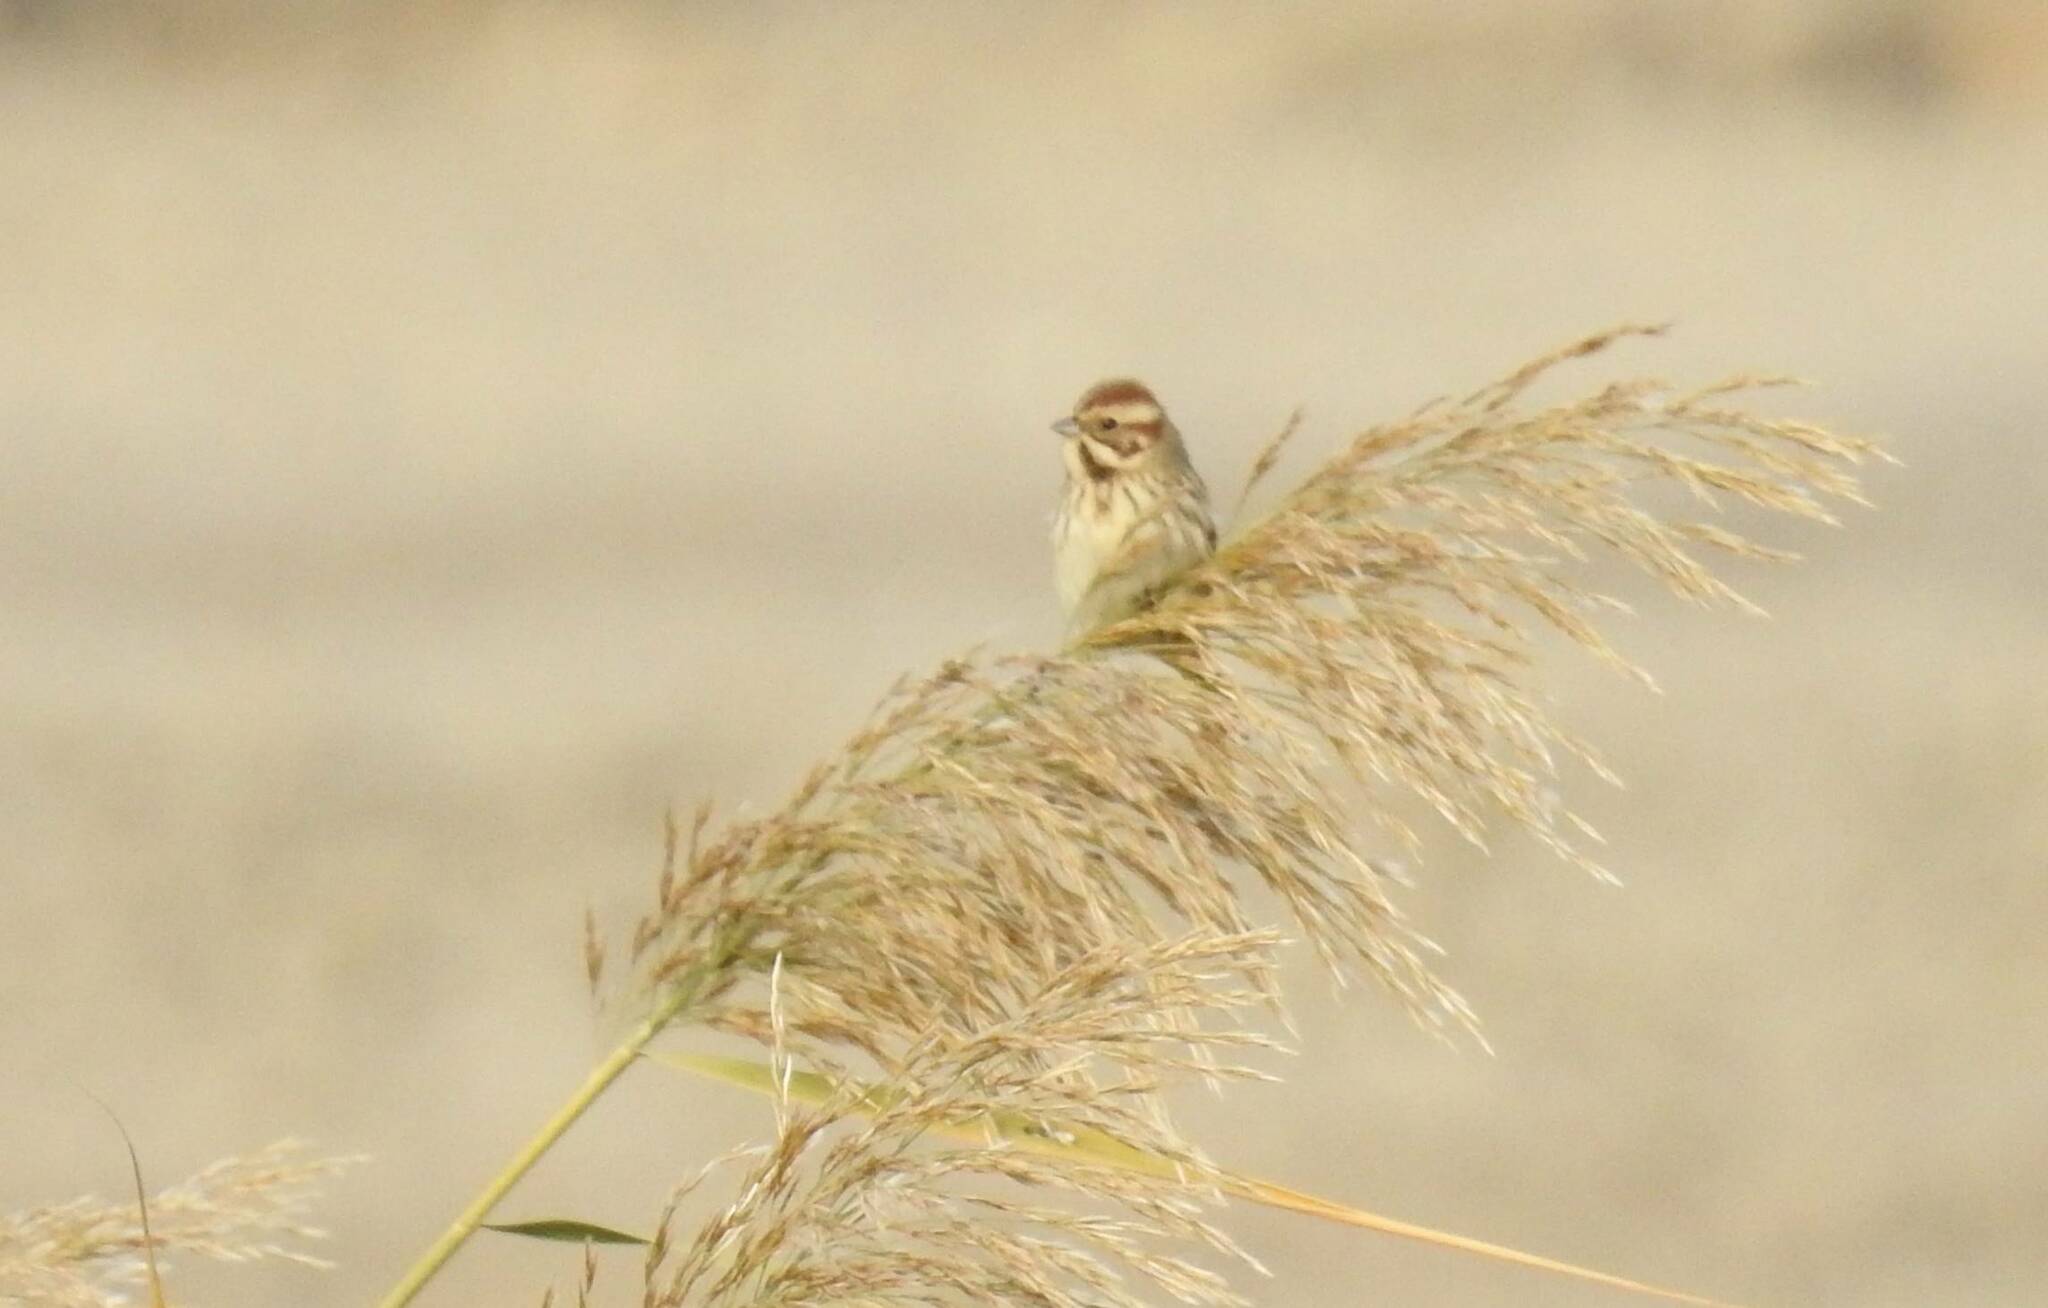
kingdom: Animalia
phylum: Chordata
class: Aves
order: Passeriformes
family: Emberizidae
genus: Emberiza
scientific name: Emberiza schoeniclus
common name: Reed bunting
